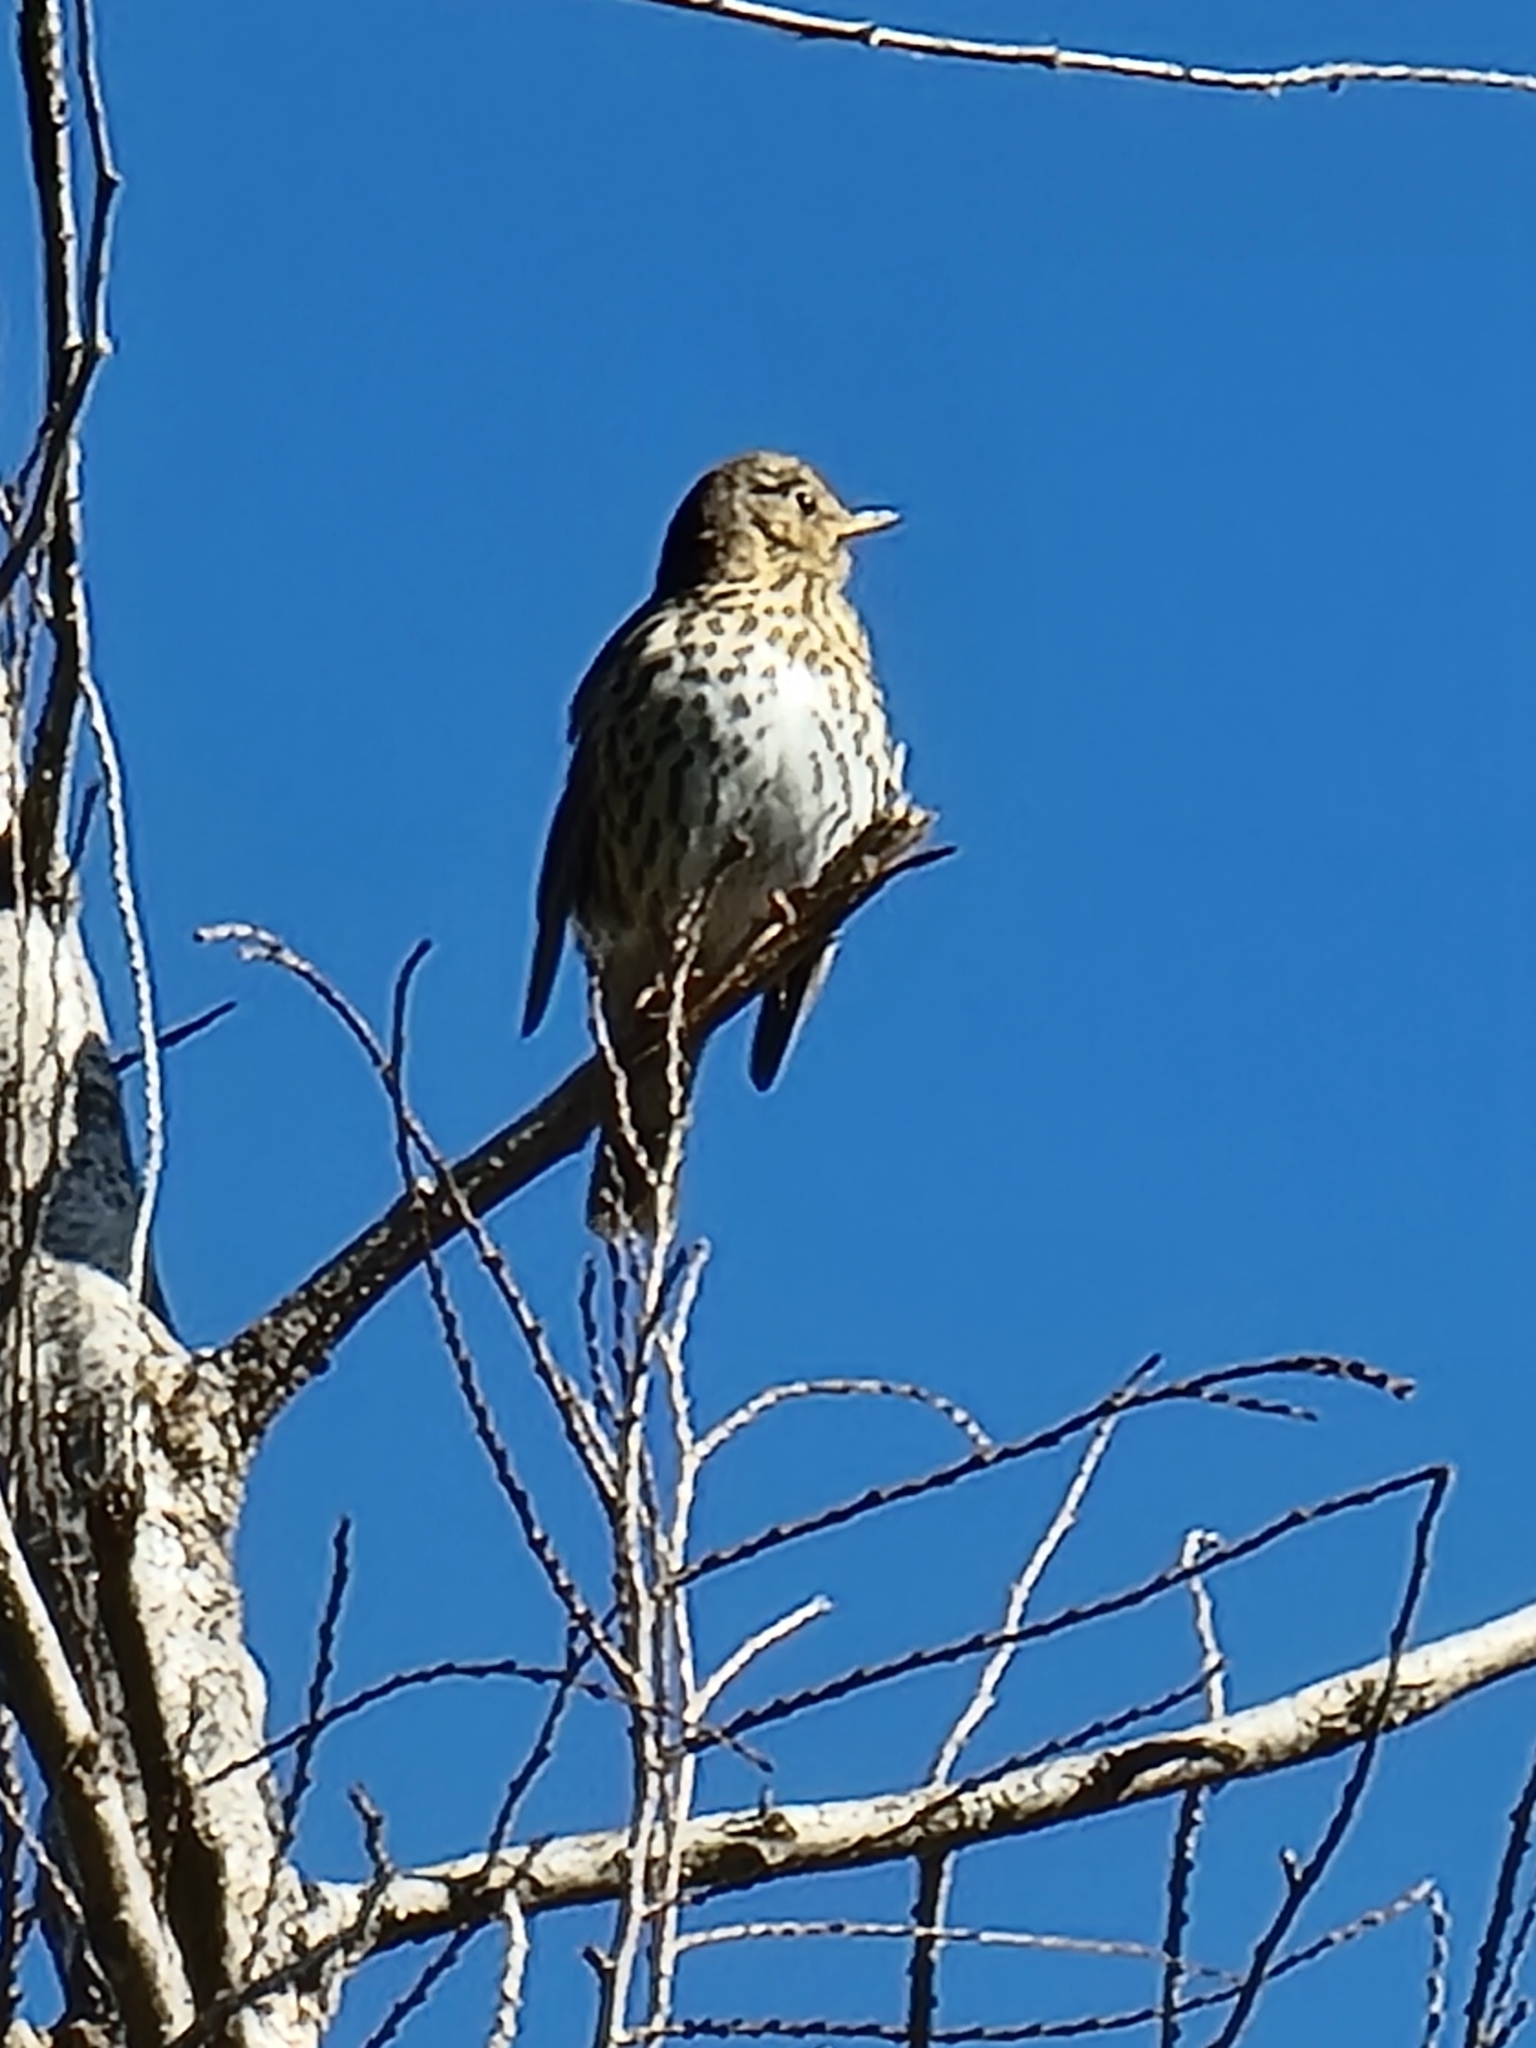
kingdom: Animalia
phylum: Chordata
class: Aves
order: Passeriformes
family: Turdidae
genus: Turdus
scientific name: Turdus philomelos
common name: Song thrush
